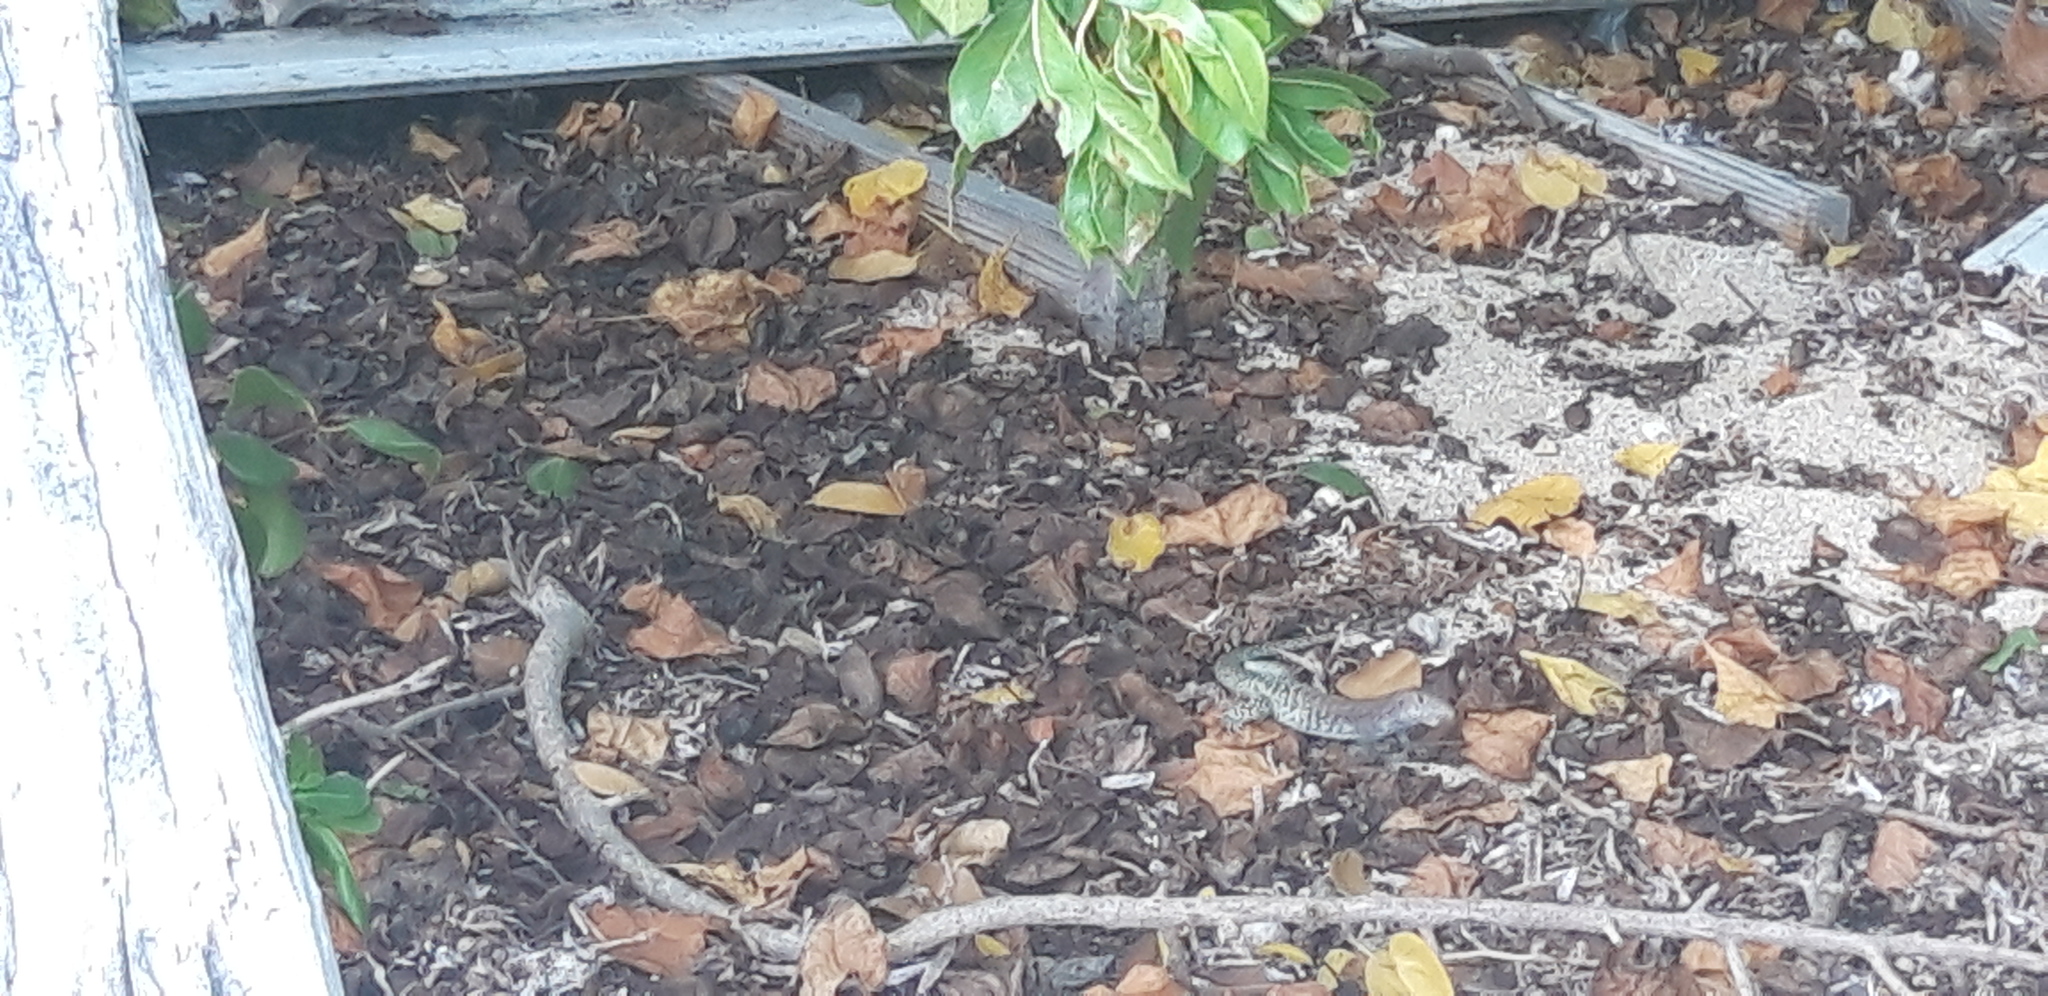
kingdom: Animalia
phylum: Chordata
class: Squamata
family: Teiidae
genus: Pholidoscelis
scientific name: Pholidoscelis plei
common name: Anguilla bank ameiva
